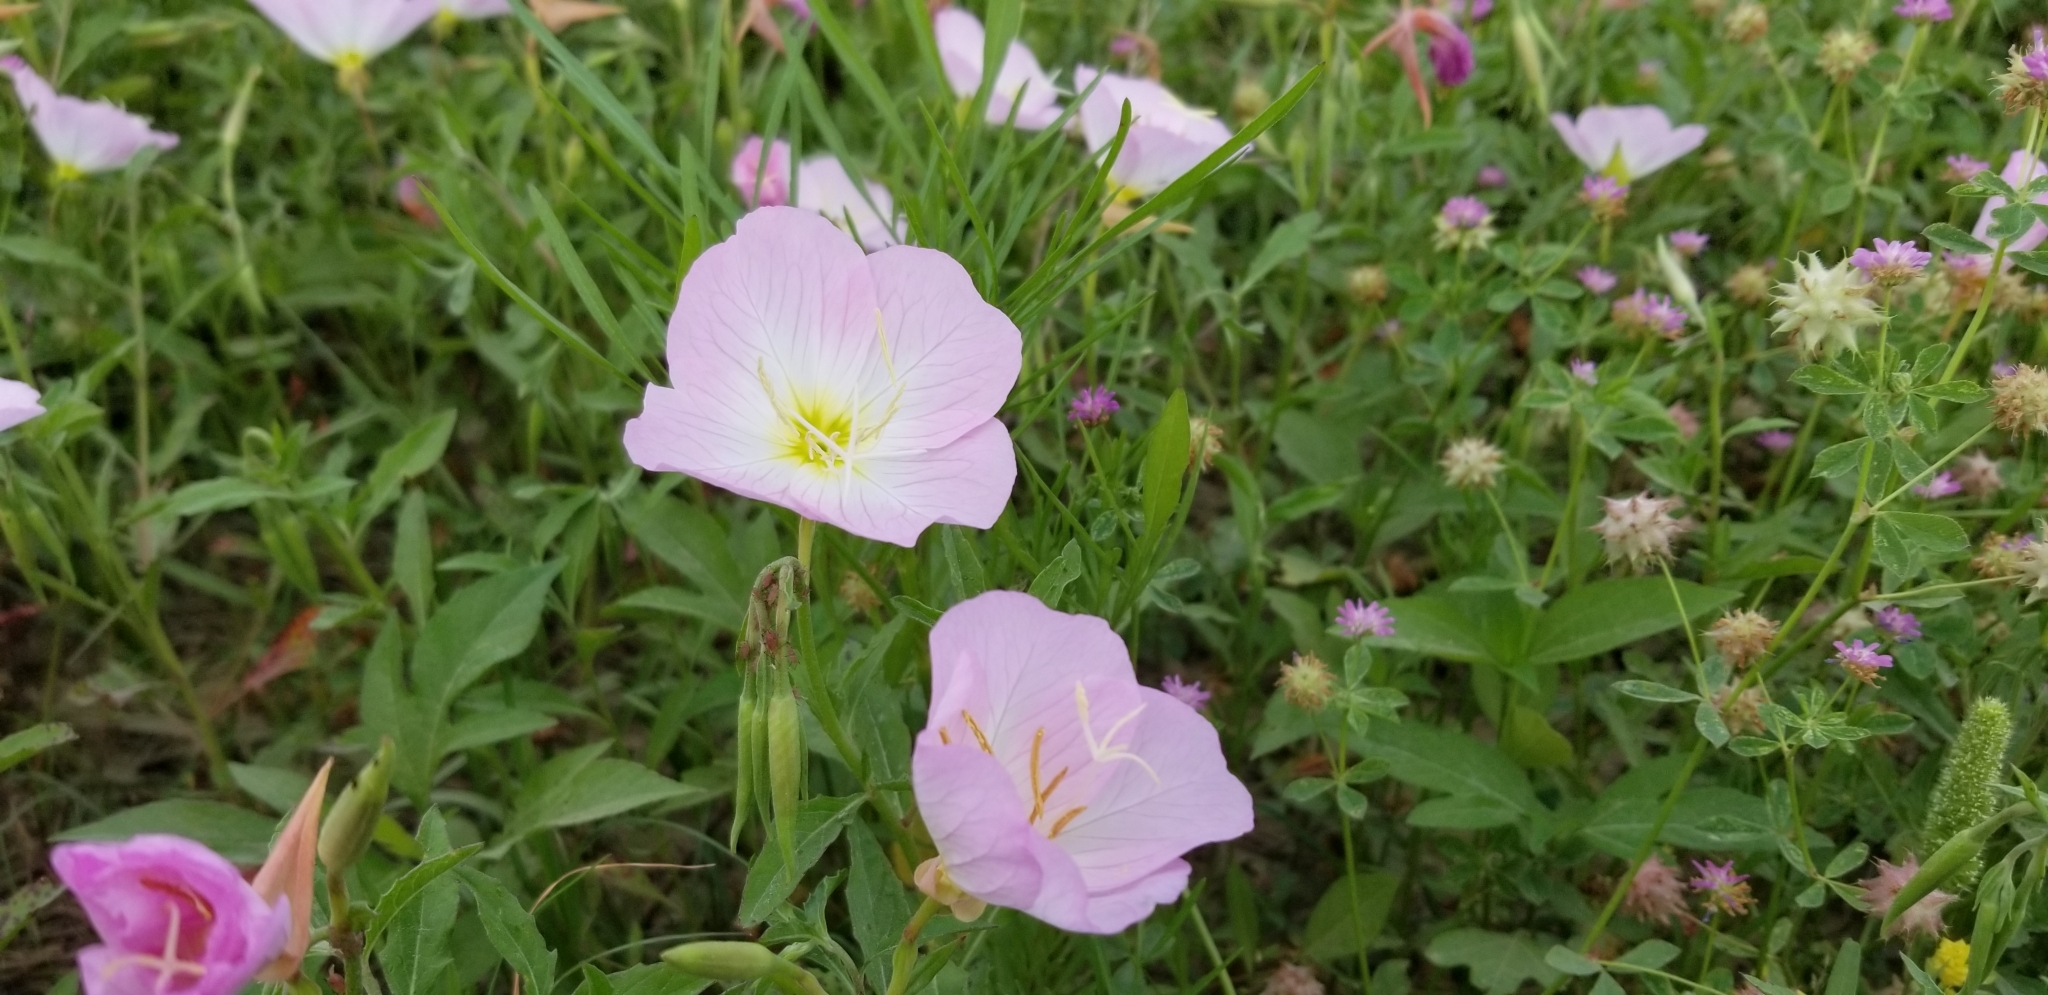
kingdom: Plantae
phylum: Tracheophyta
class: Magnoliopsida
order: Myrtales
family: Onagraceae
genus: Oenothera
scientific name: Oenothera speciosa
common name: White evening-primrose
